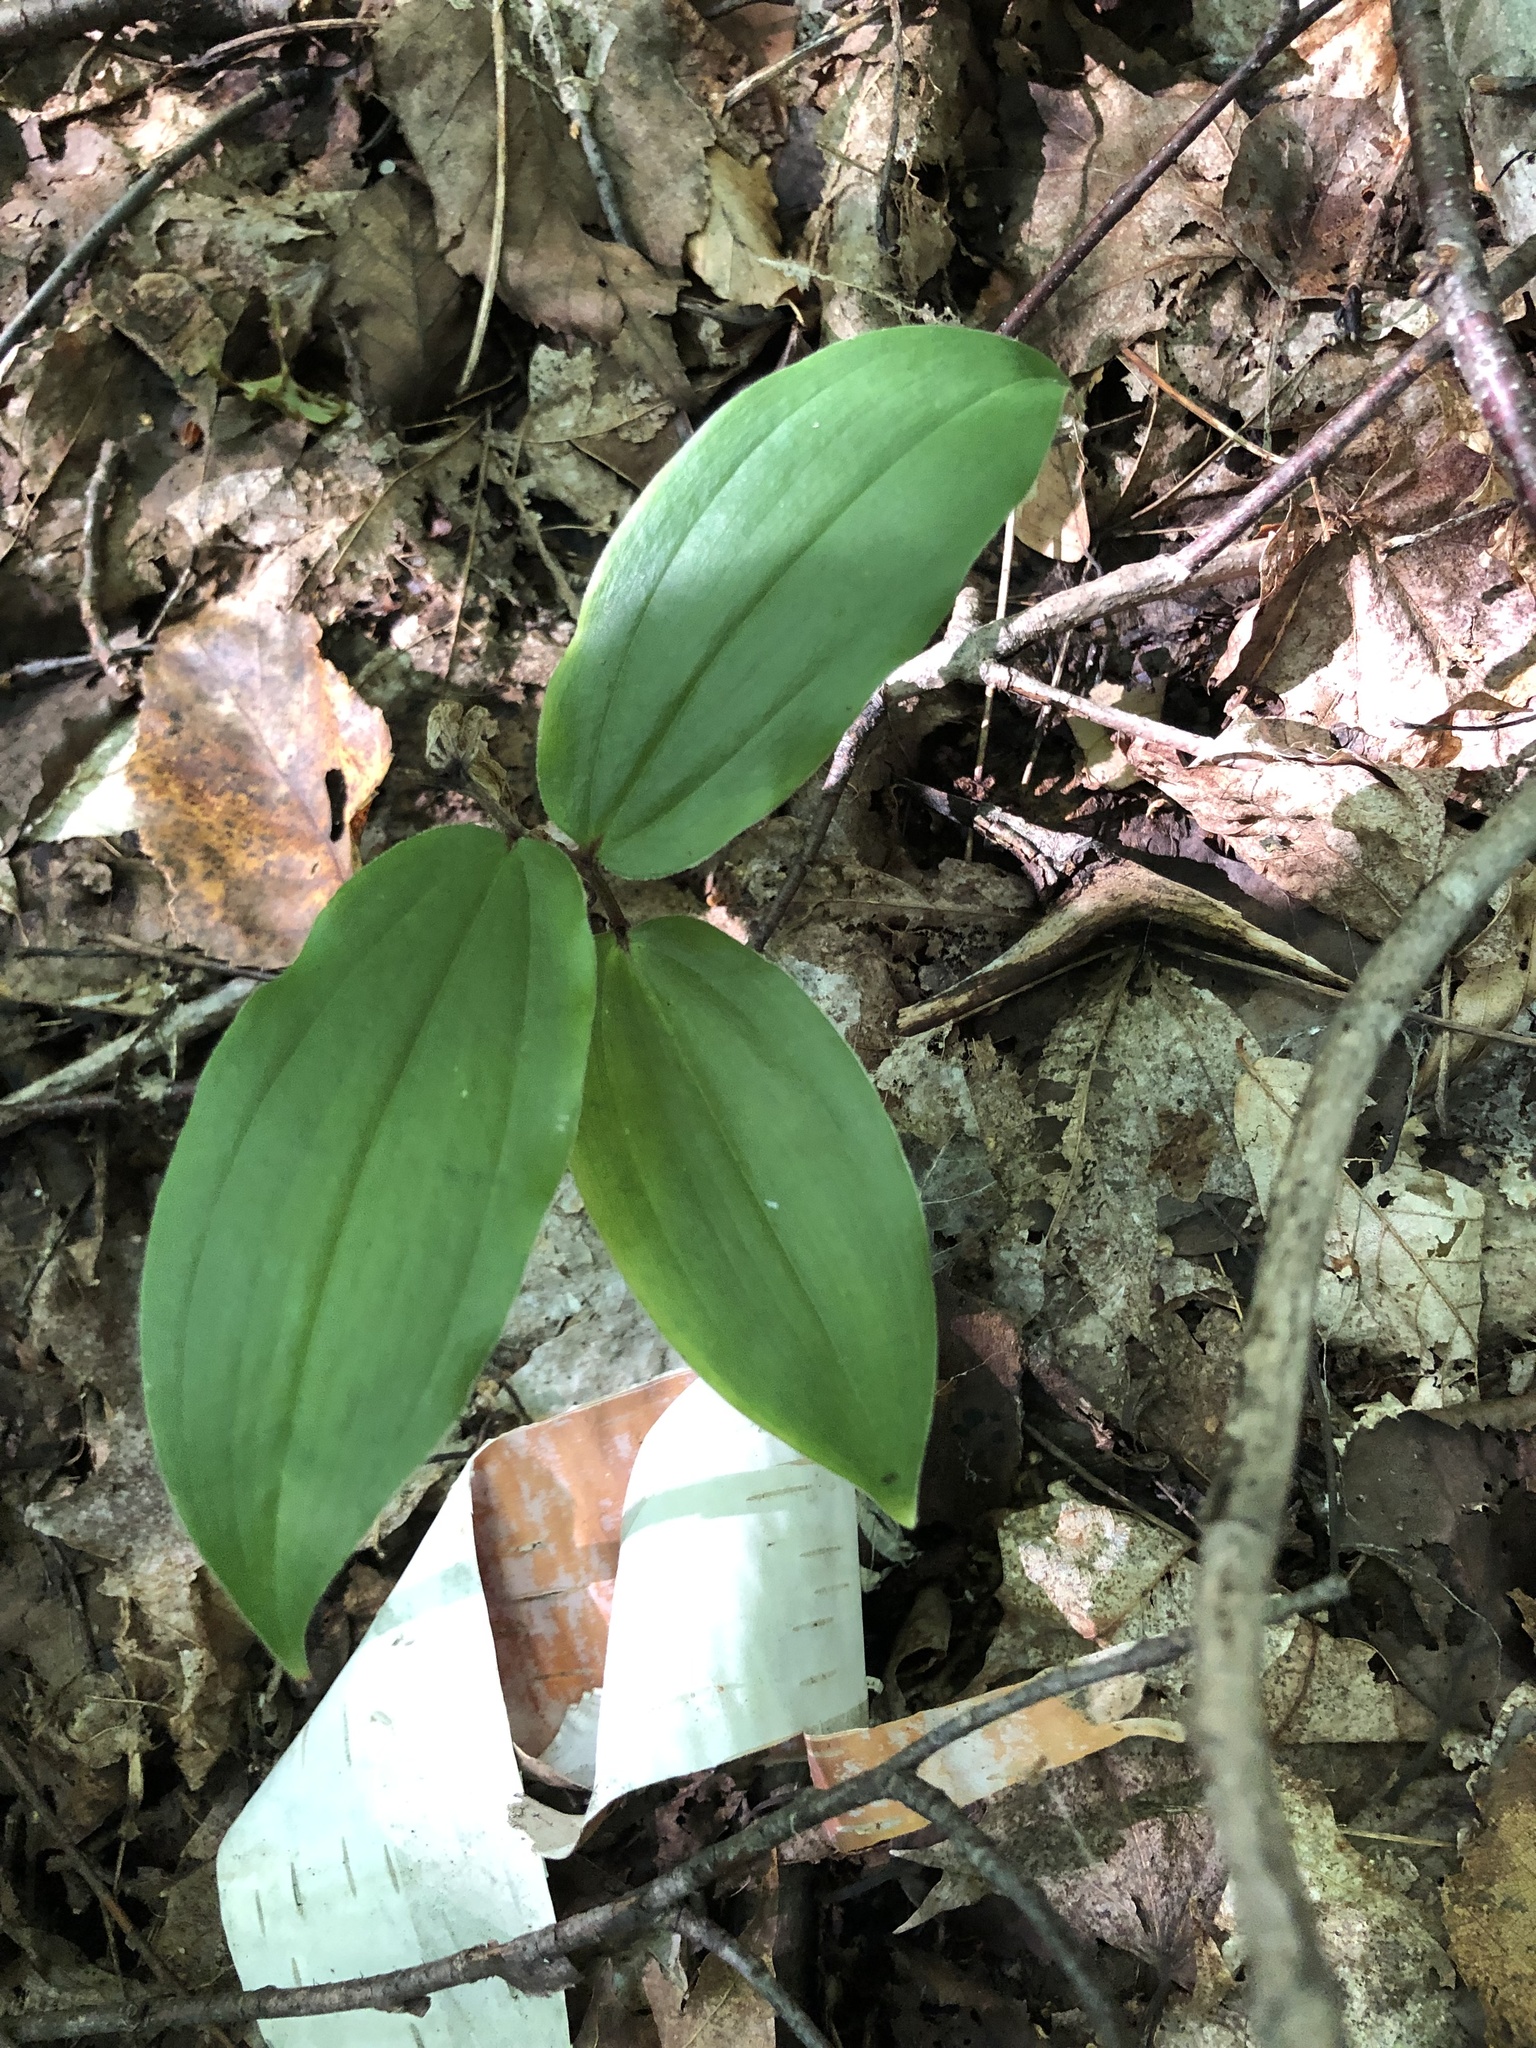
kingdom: Plantae
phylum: Tracheophyta
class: Liliopsida
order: Asparagales
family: Asparagaceae
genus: Maianthemum
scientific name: Maianthemum racemosum
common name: False spikenard
